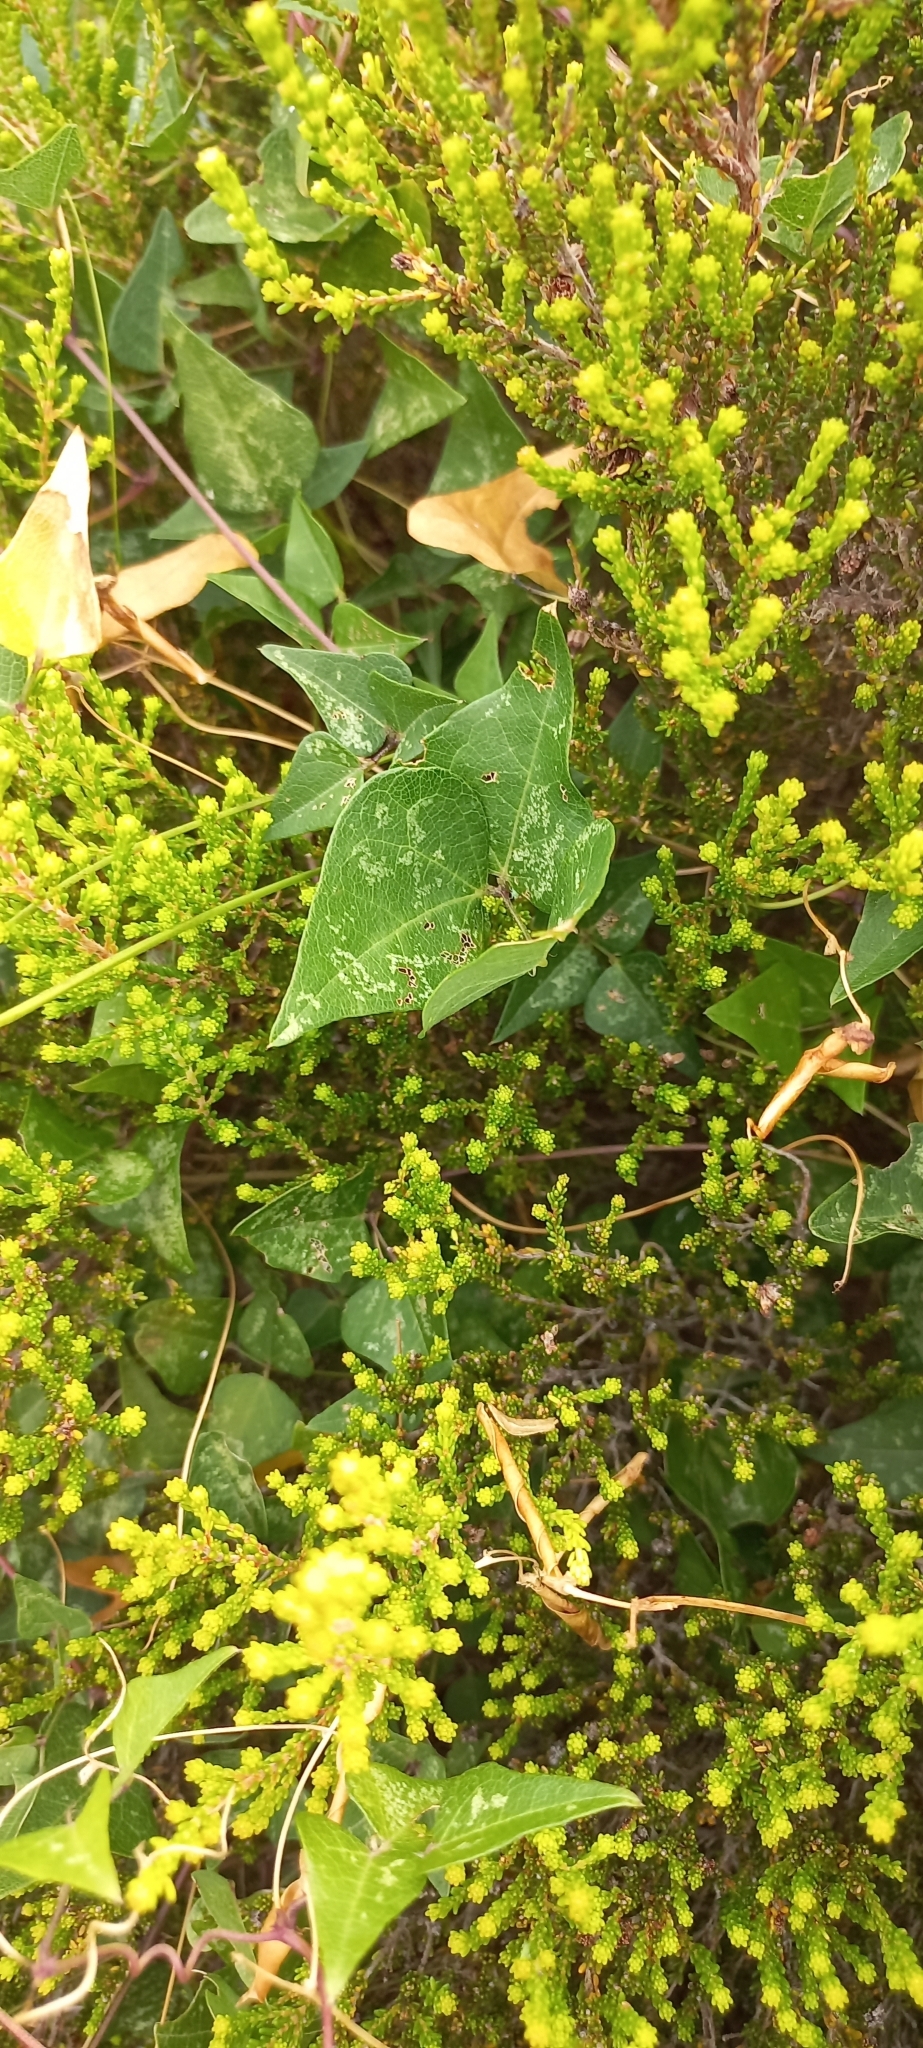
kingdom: Plantae
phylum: Tracheophyta
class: Magnoliopsida
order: Fabales
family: Fabaceae
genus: Dipogon
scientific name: Dipogon lignosus
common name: Okie bean
